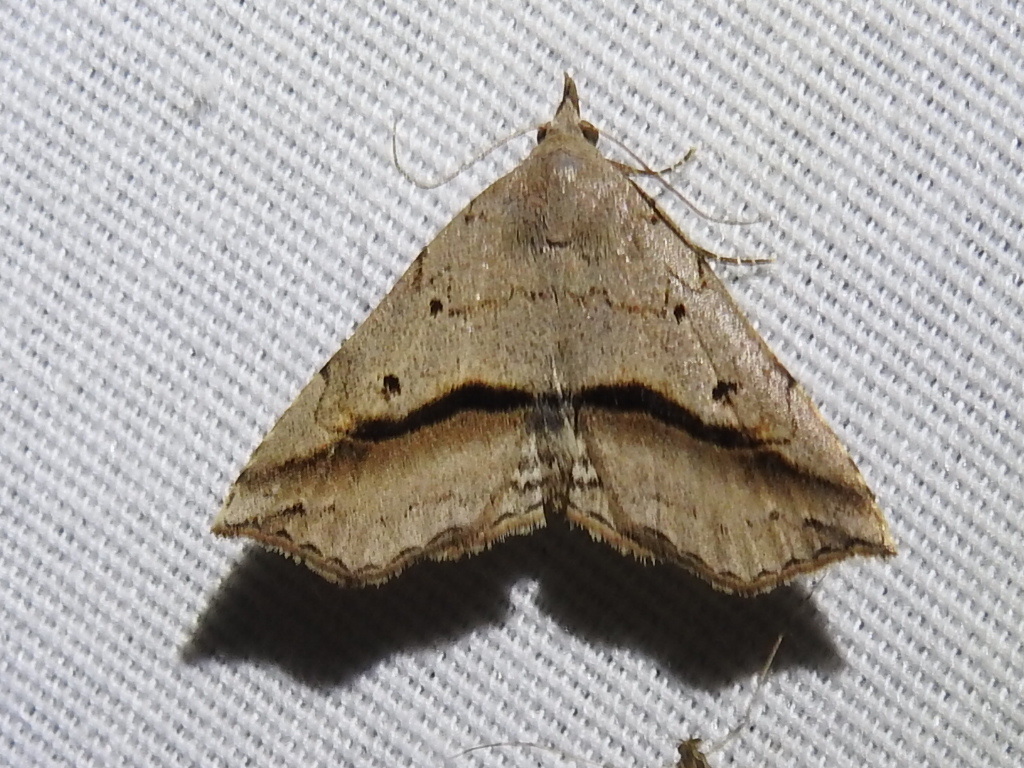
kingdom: Animalia
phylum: Arthropoda
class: Insecta
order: Lepidoptera
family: Erebidae
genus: Spargaloma
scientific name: Spargaloma perditalis
